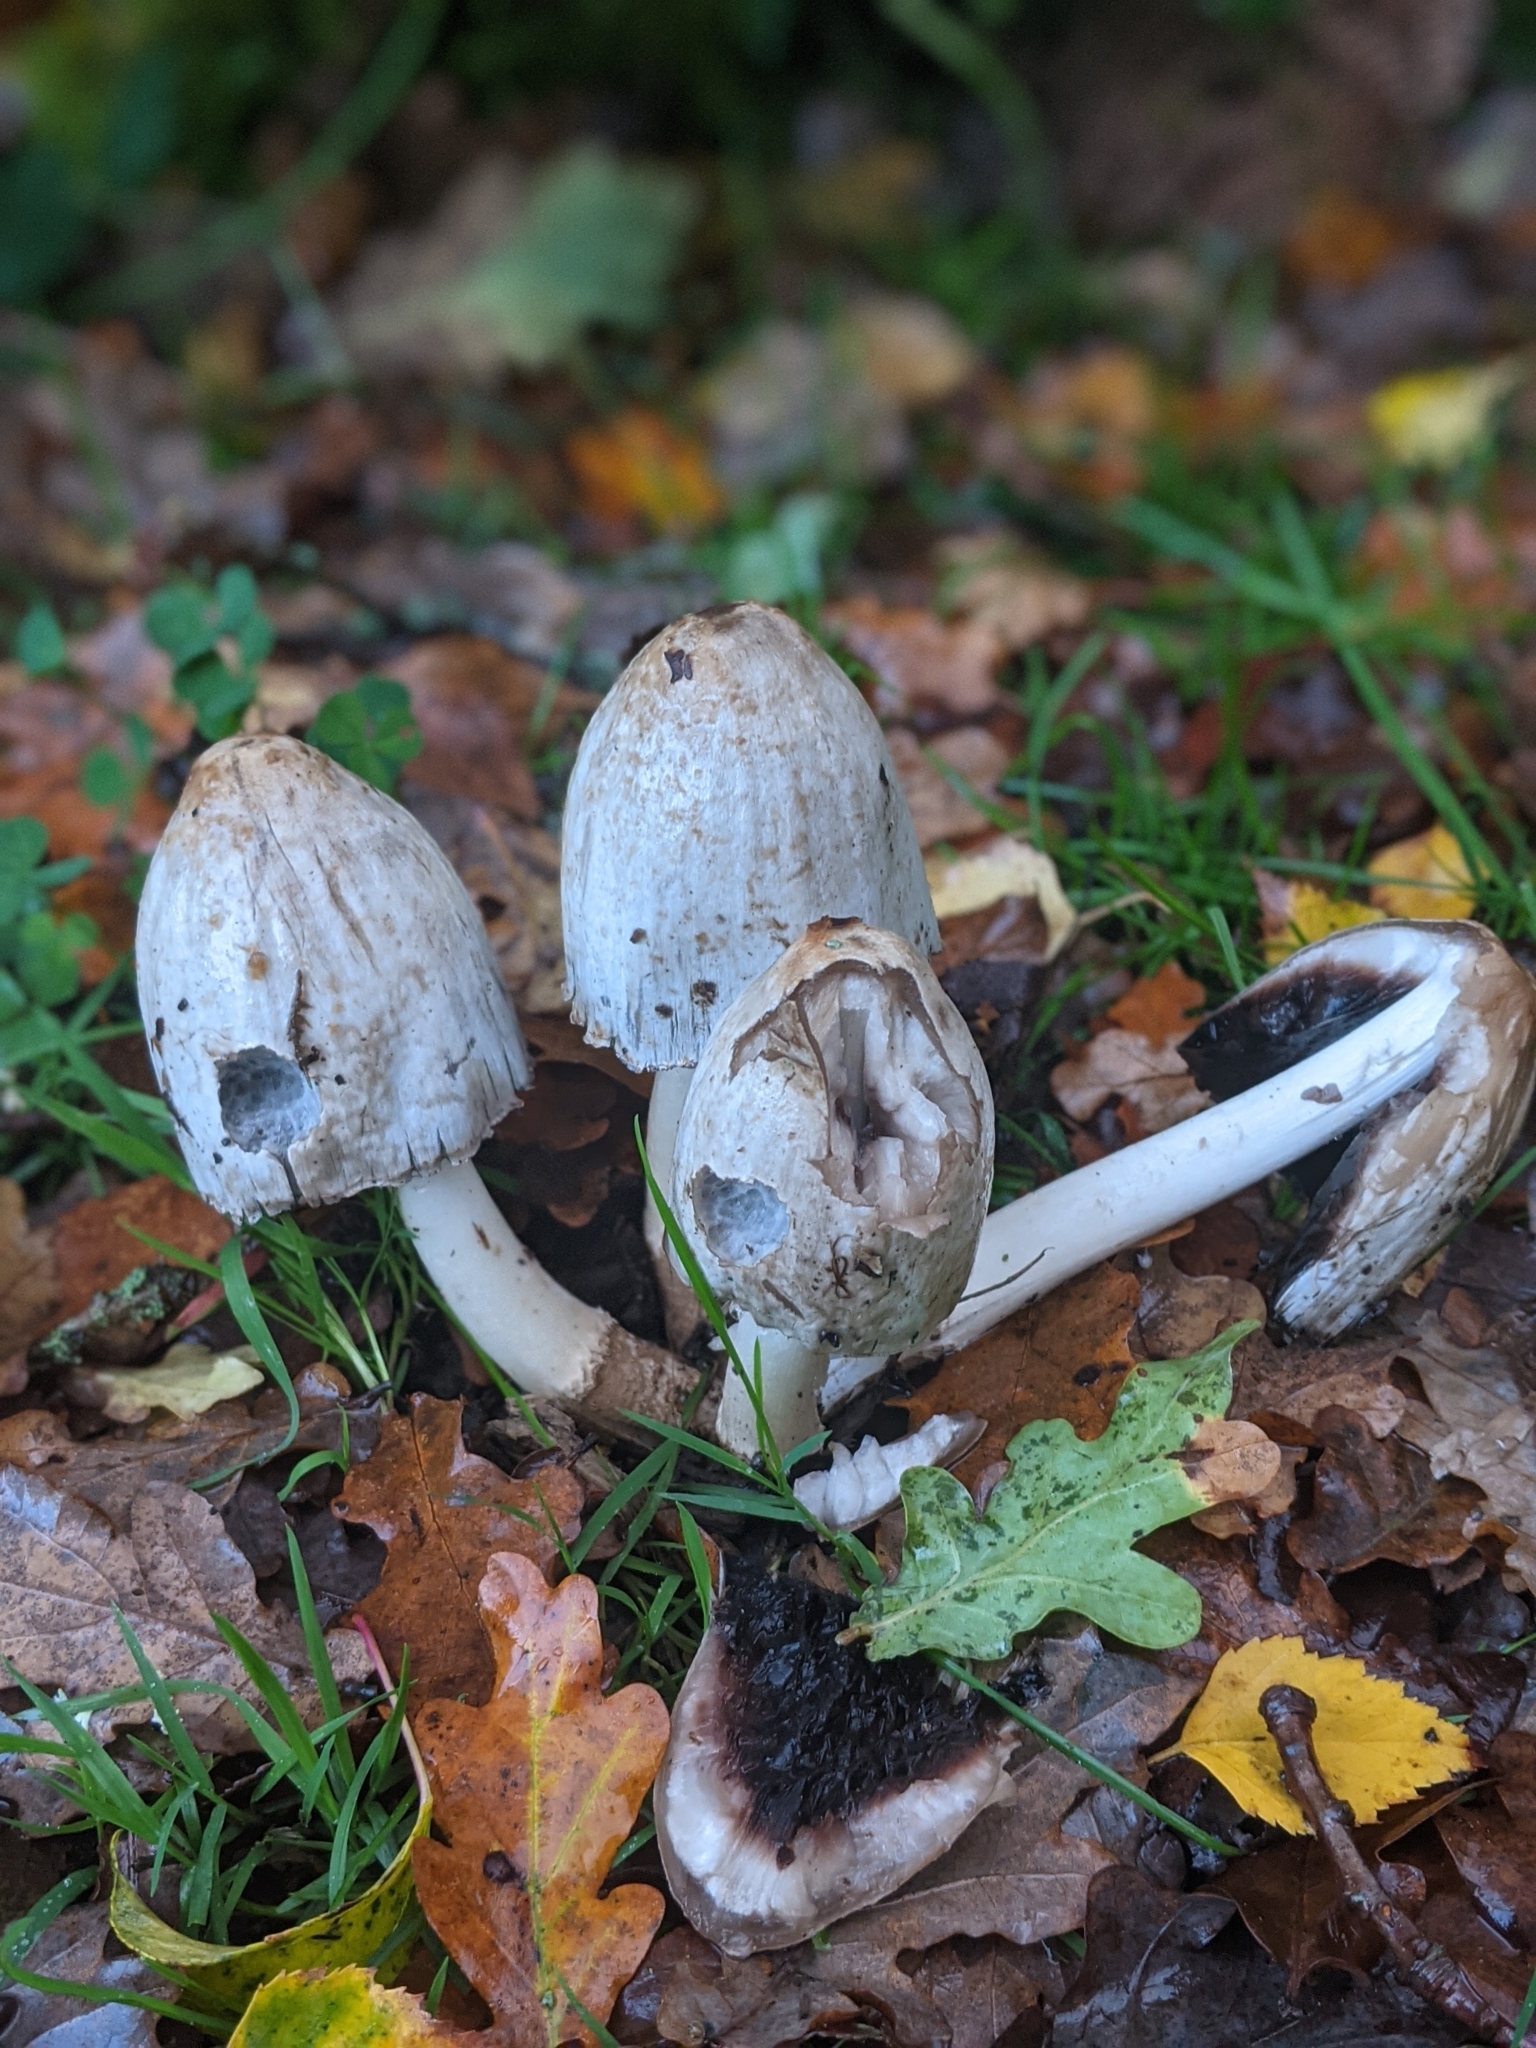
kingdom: Fungi
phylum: Basidiomycota
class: Agaricomycetes
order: Agaricales
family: Psathyrellaceae
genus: Coprinopsis
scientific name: Coprinopsis atramentaria
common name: Common ink-cap
